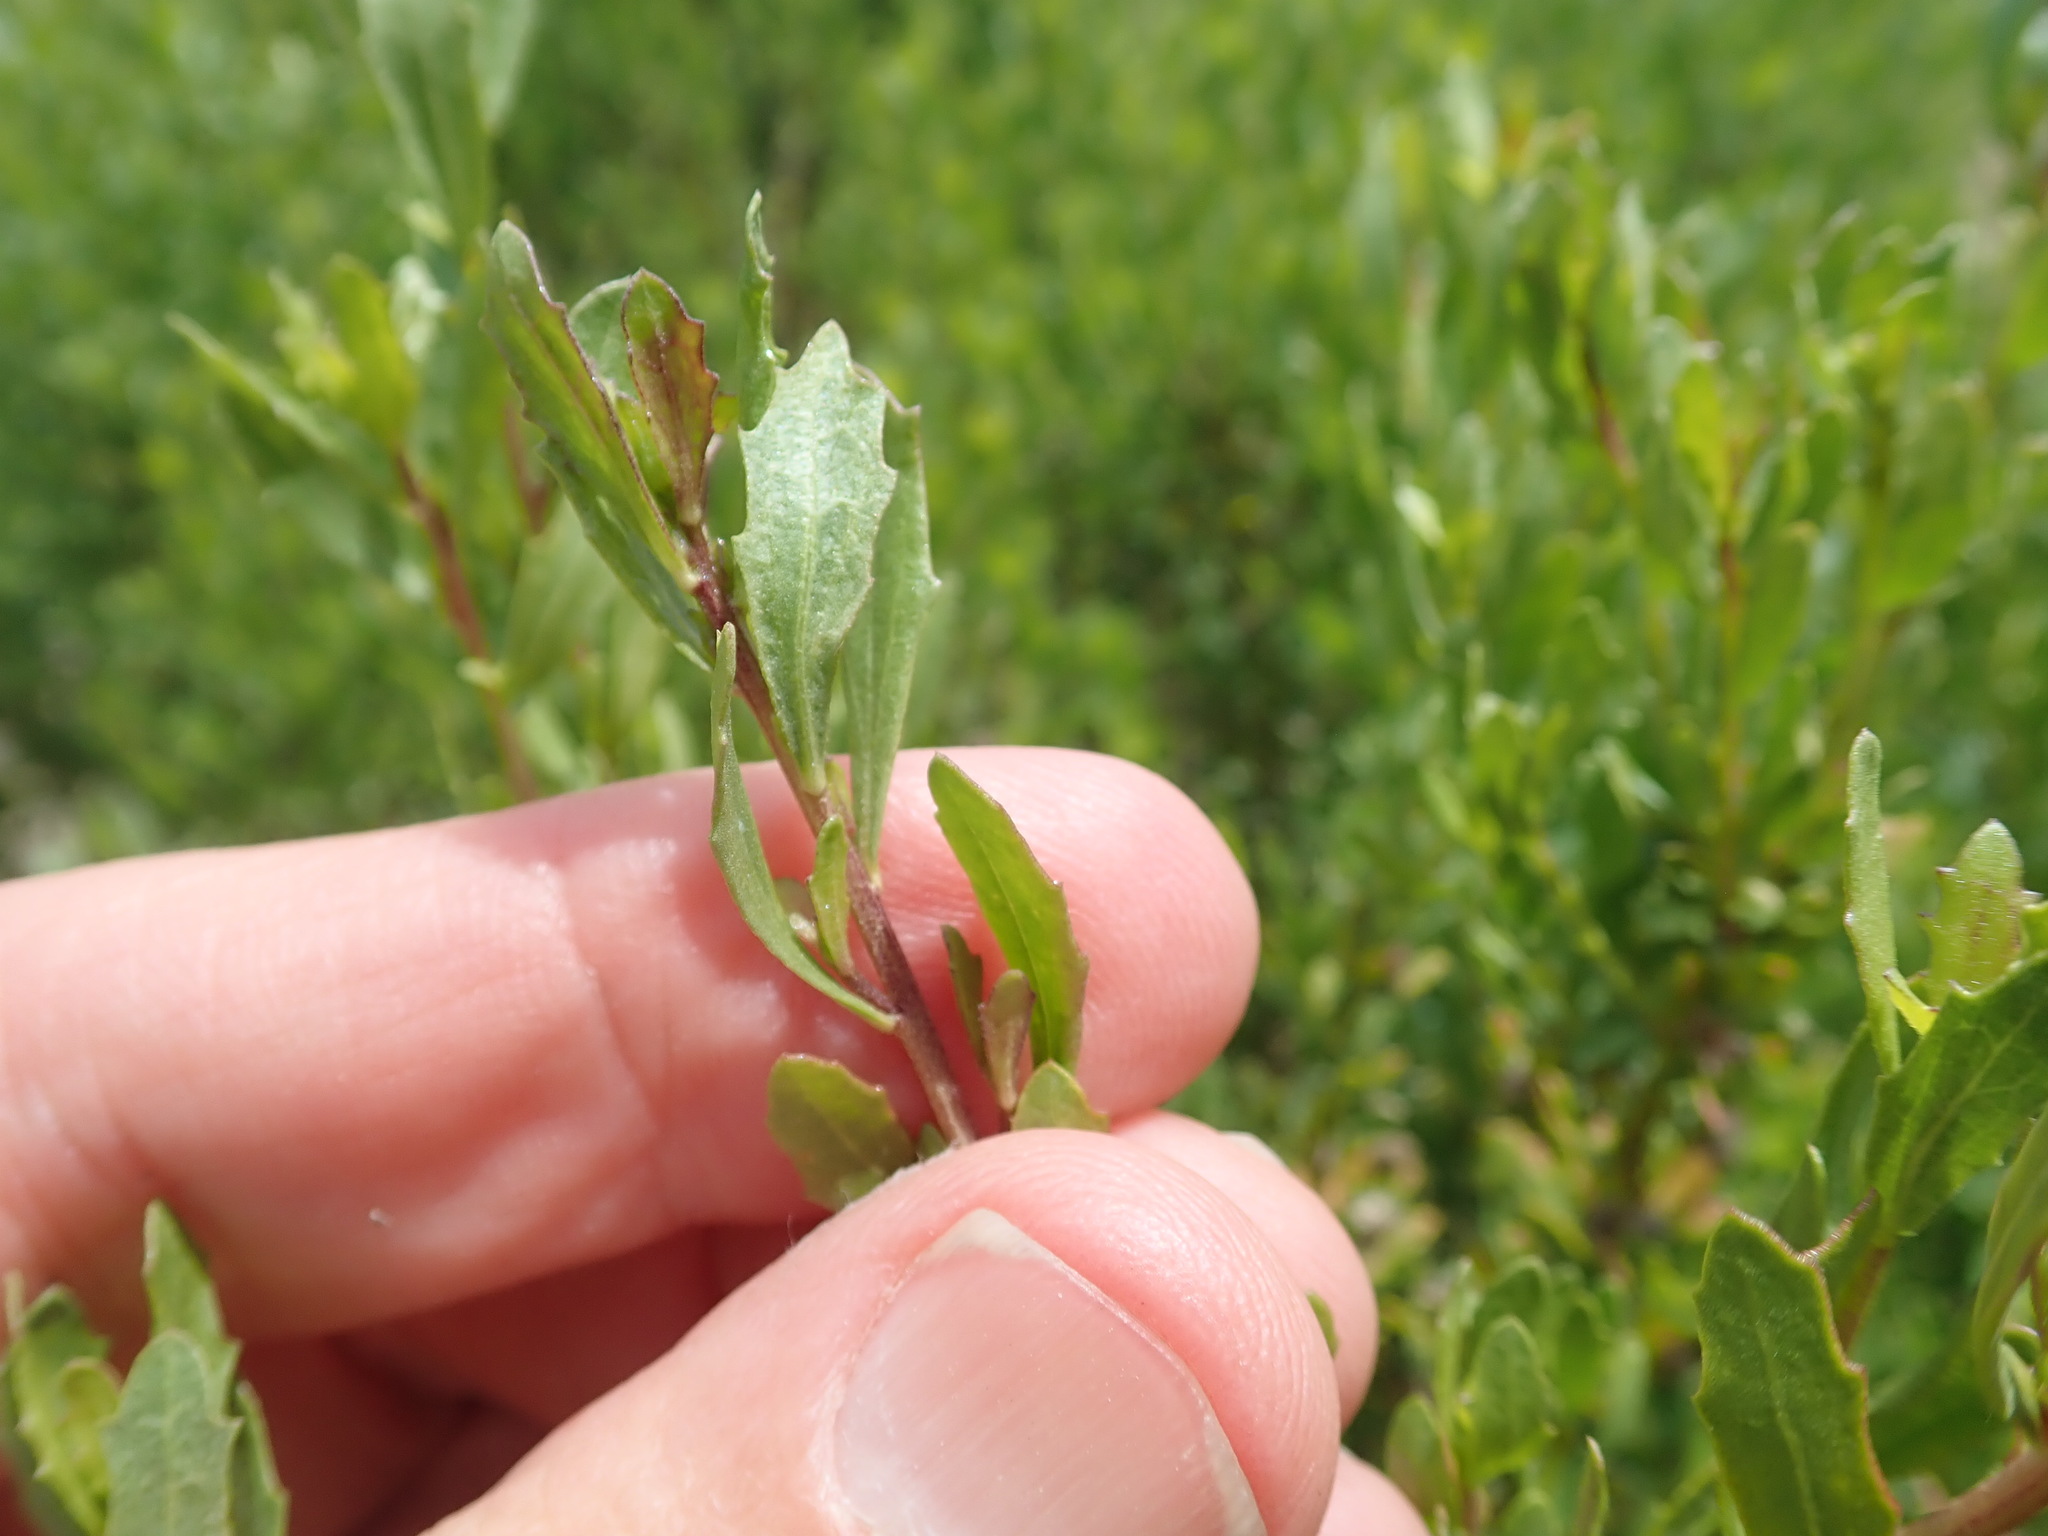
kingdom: Plantae
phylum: Tracheophyta
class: Magnoliopsida
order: Asterales
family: Asteraceae
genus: Baccharis
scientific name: Baccharis pilularis
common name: Coyotebrush
